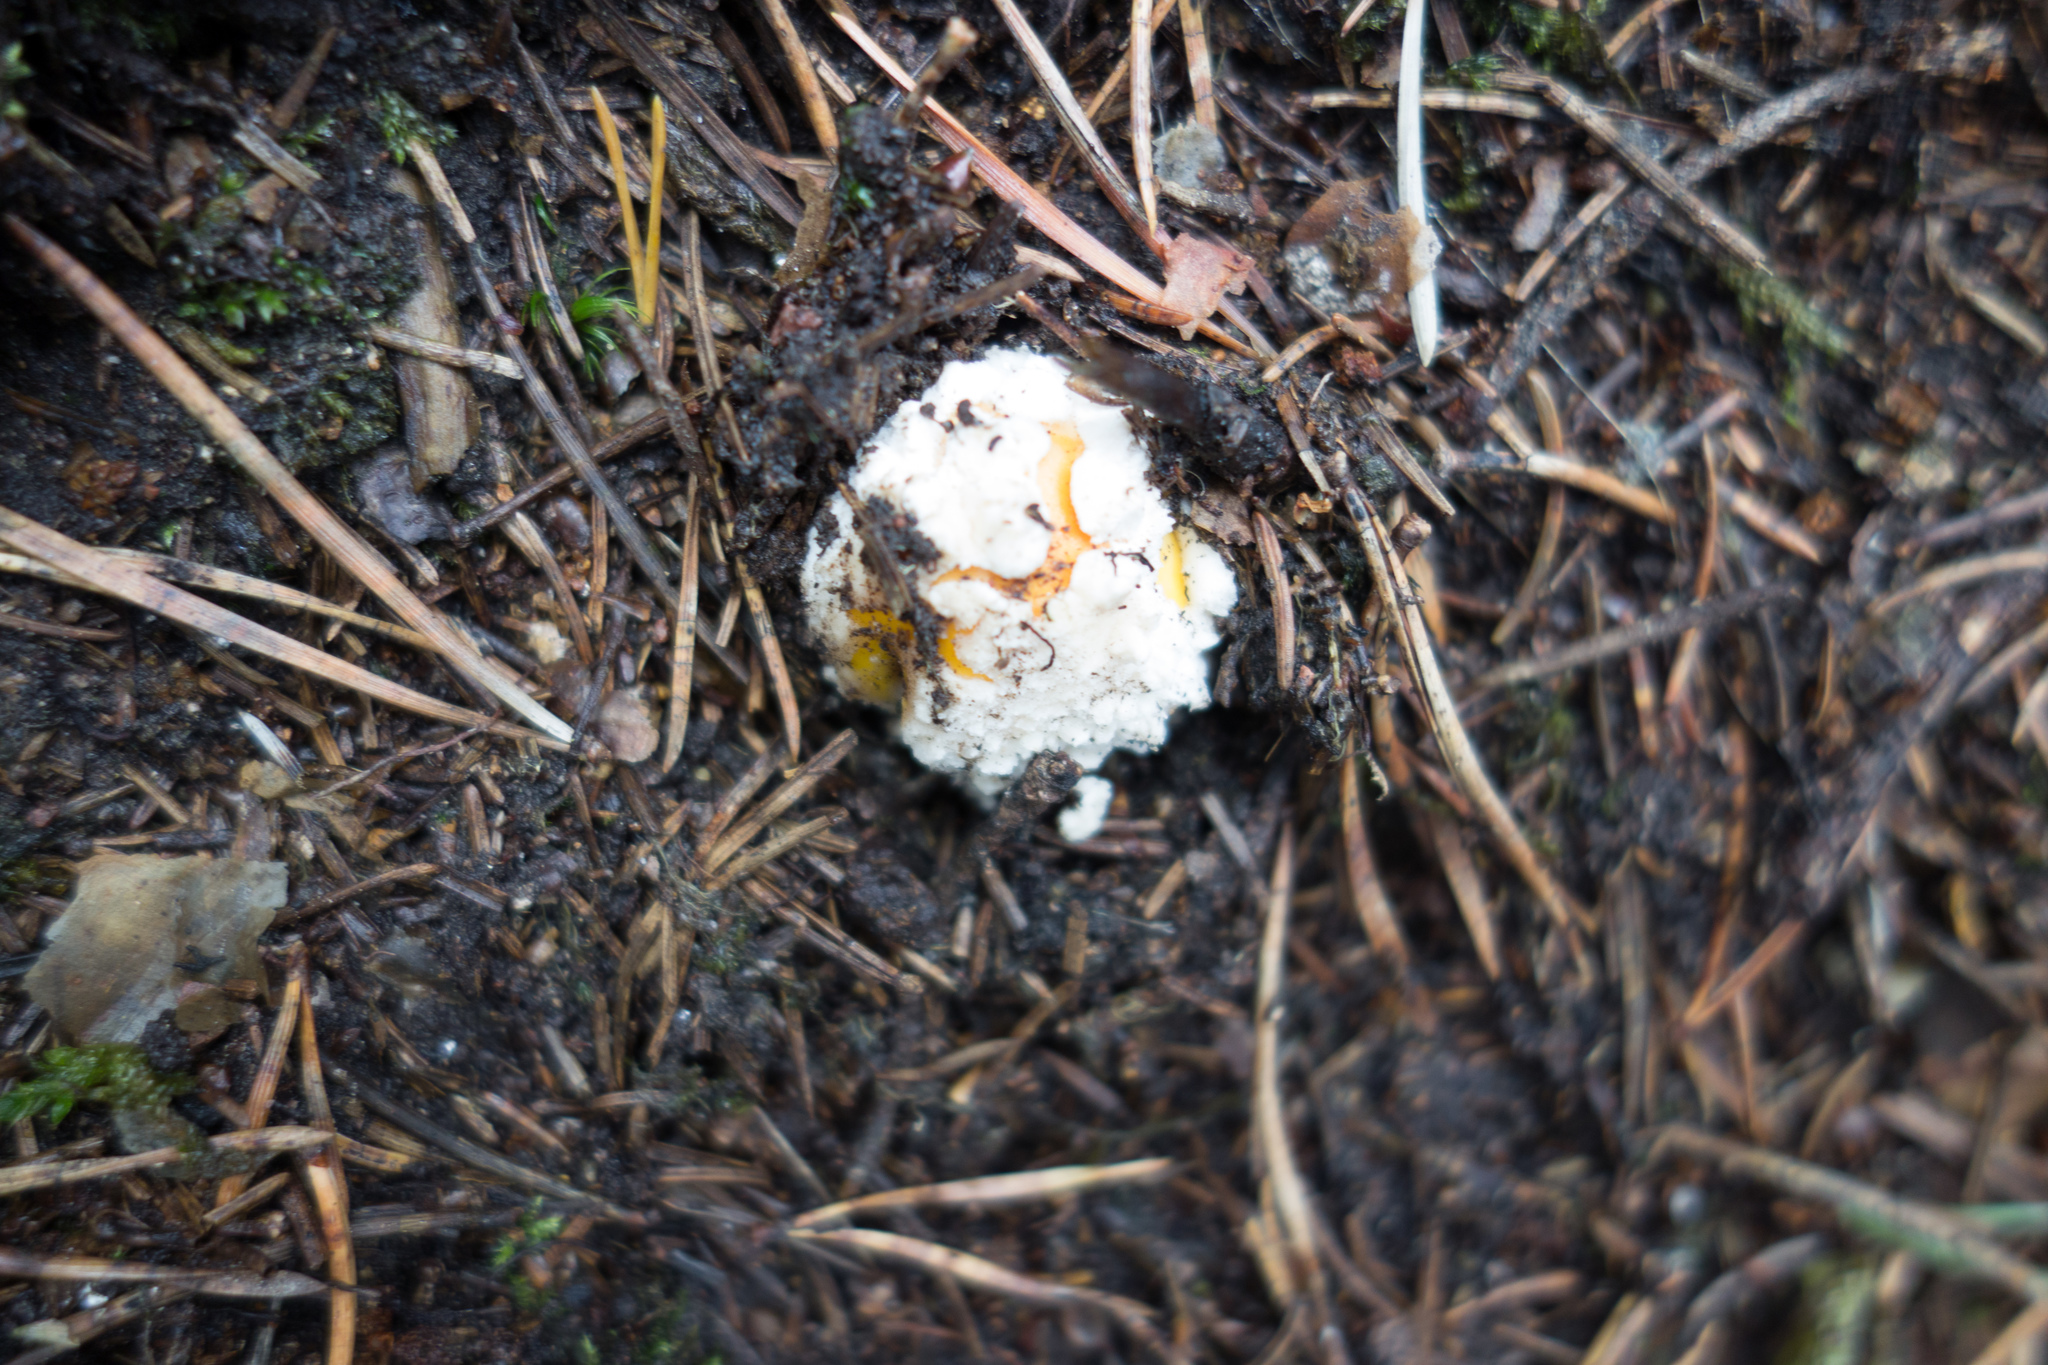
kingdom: Fungi
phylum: Basidiomycota
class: Agaricomycetes
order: Agaricales
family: Amanitaceae
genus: Amanita
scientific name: Amanita muscaria
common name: Fly agaric
